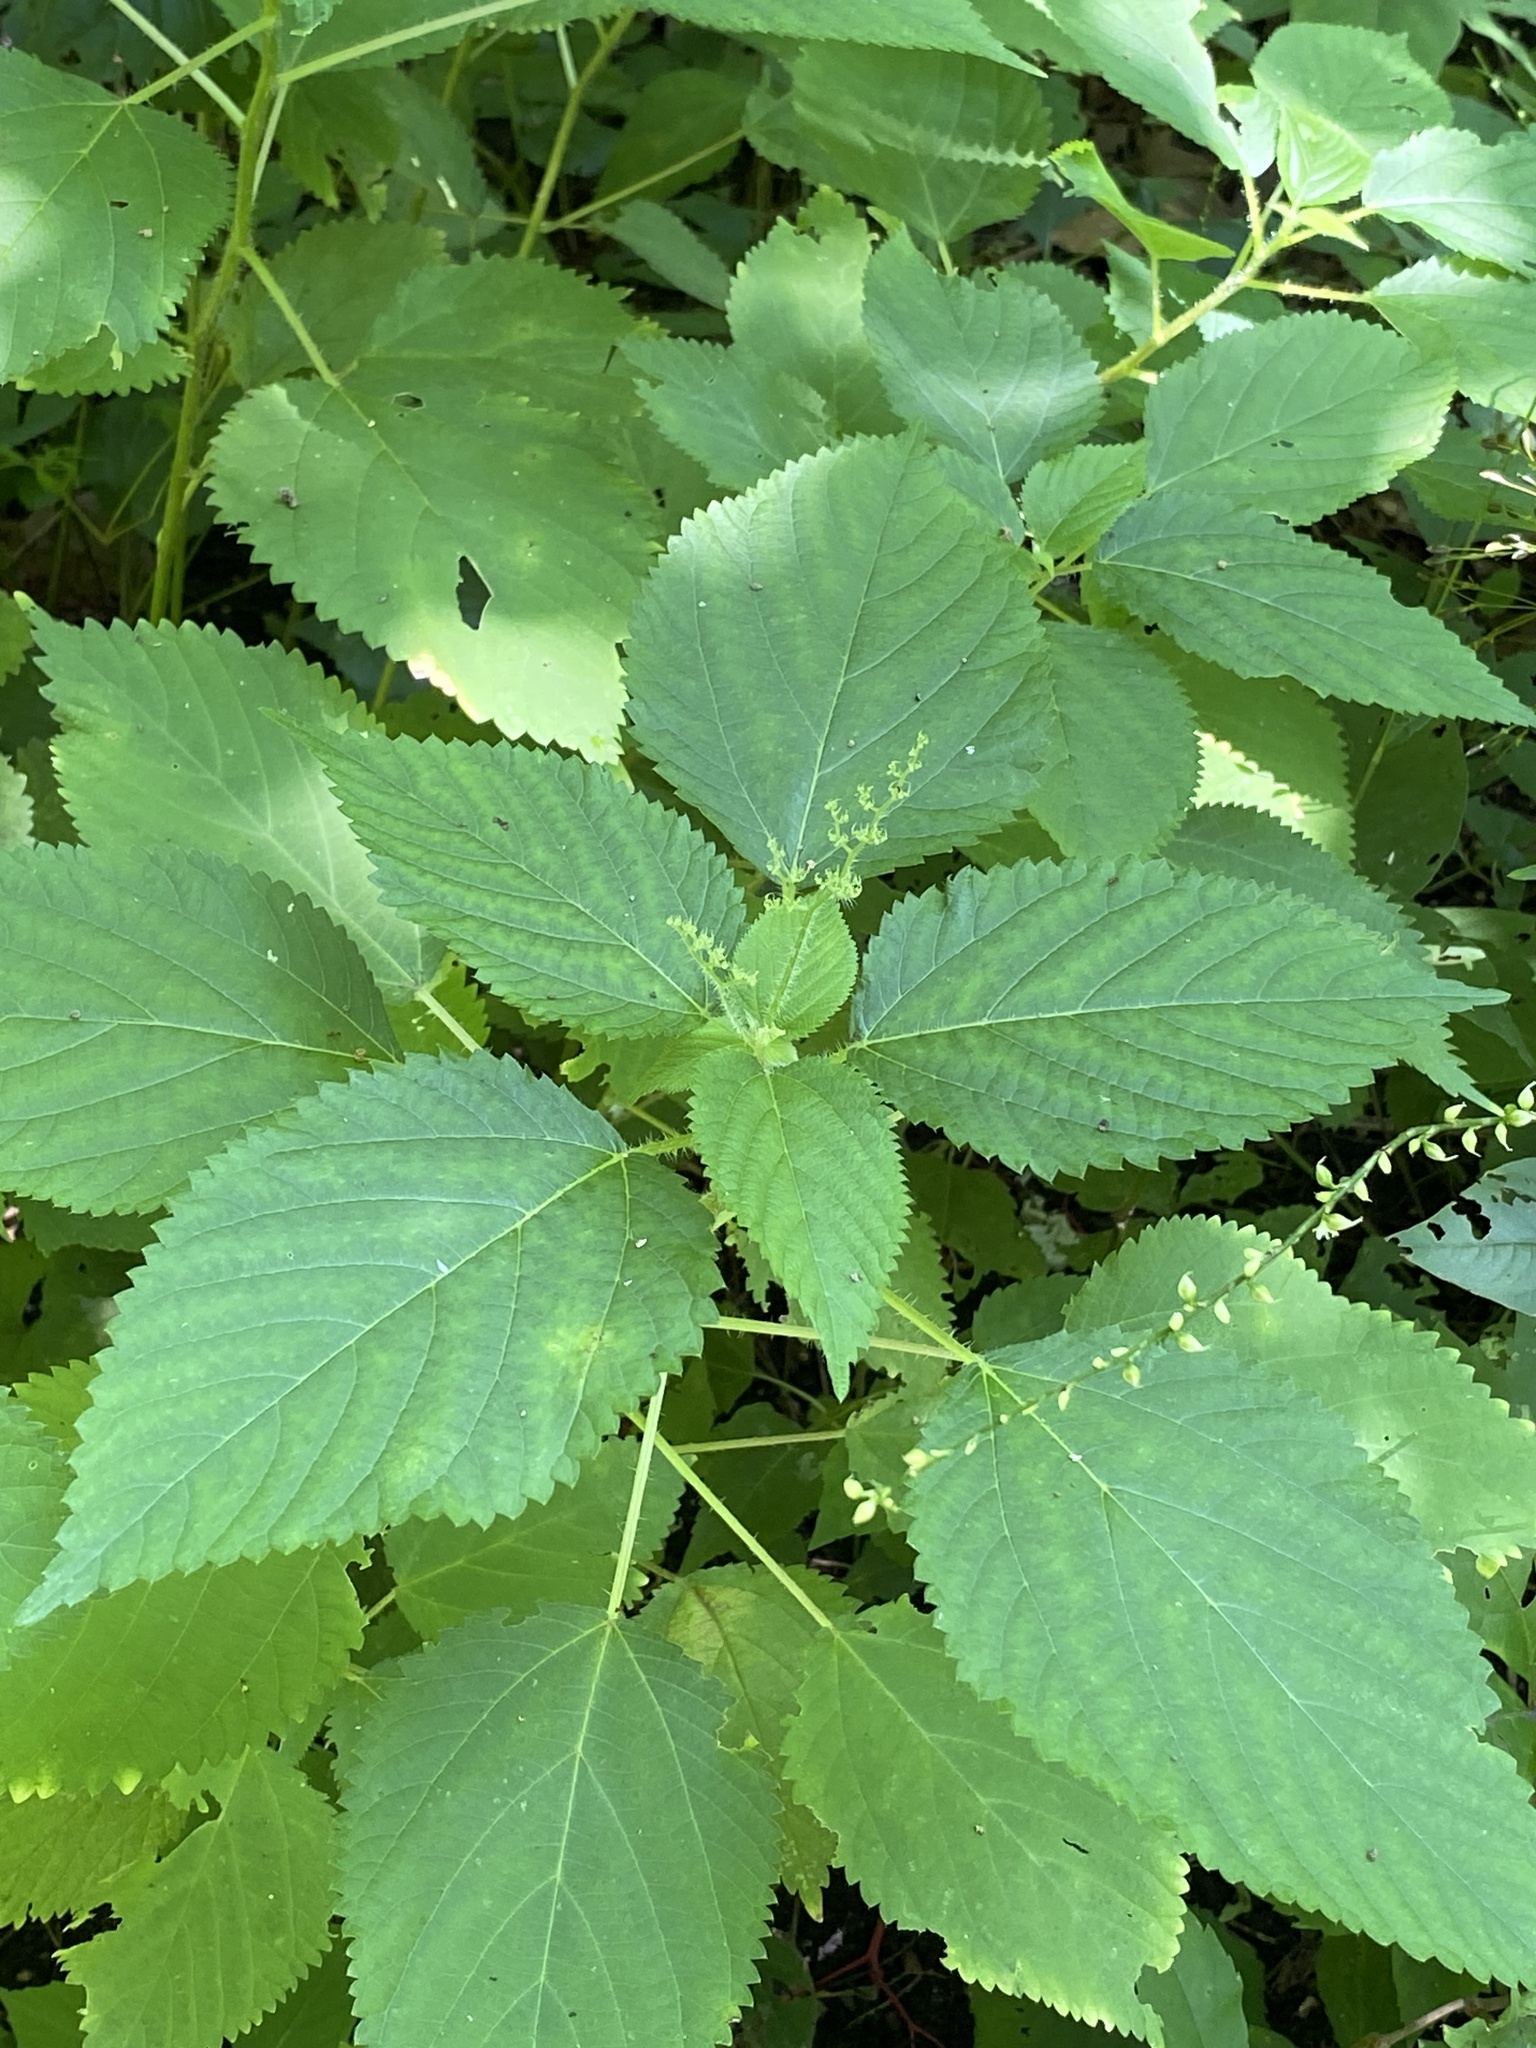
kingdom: Plantae
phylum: Tracheophyta
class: Magnoliopsida
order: Rosales
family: Urticaceae
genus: Laportea
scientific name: Laportea canadensis
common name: Canada nettle
